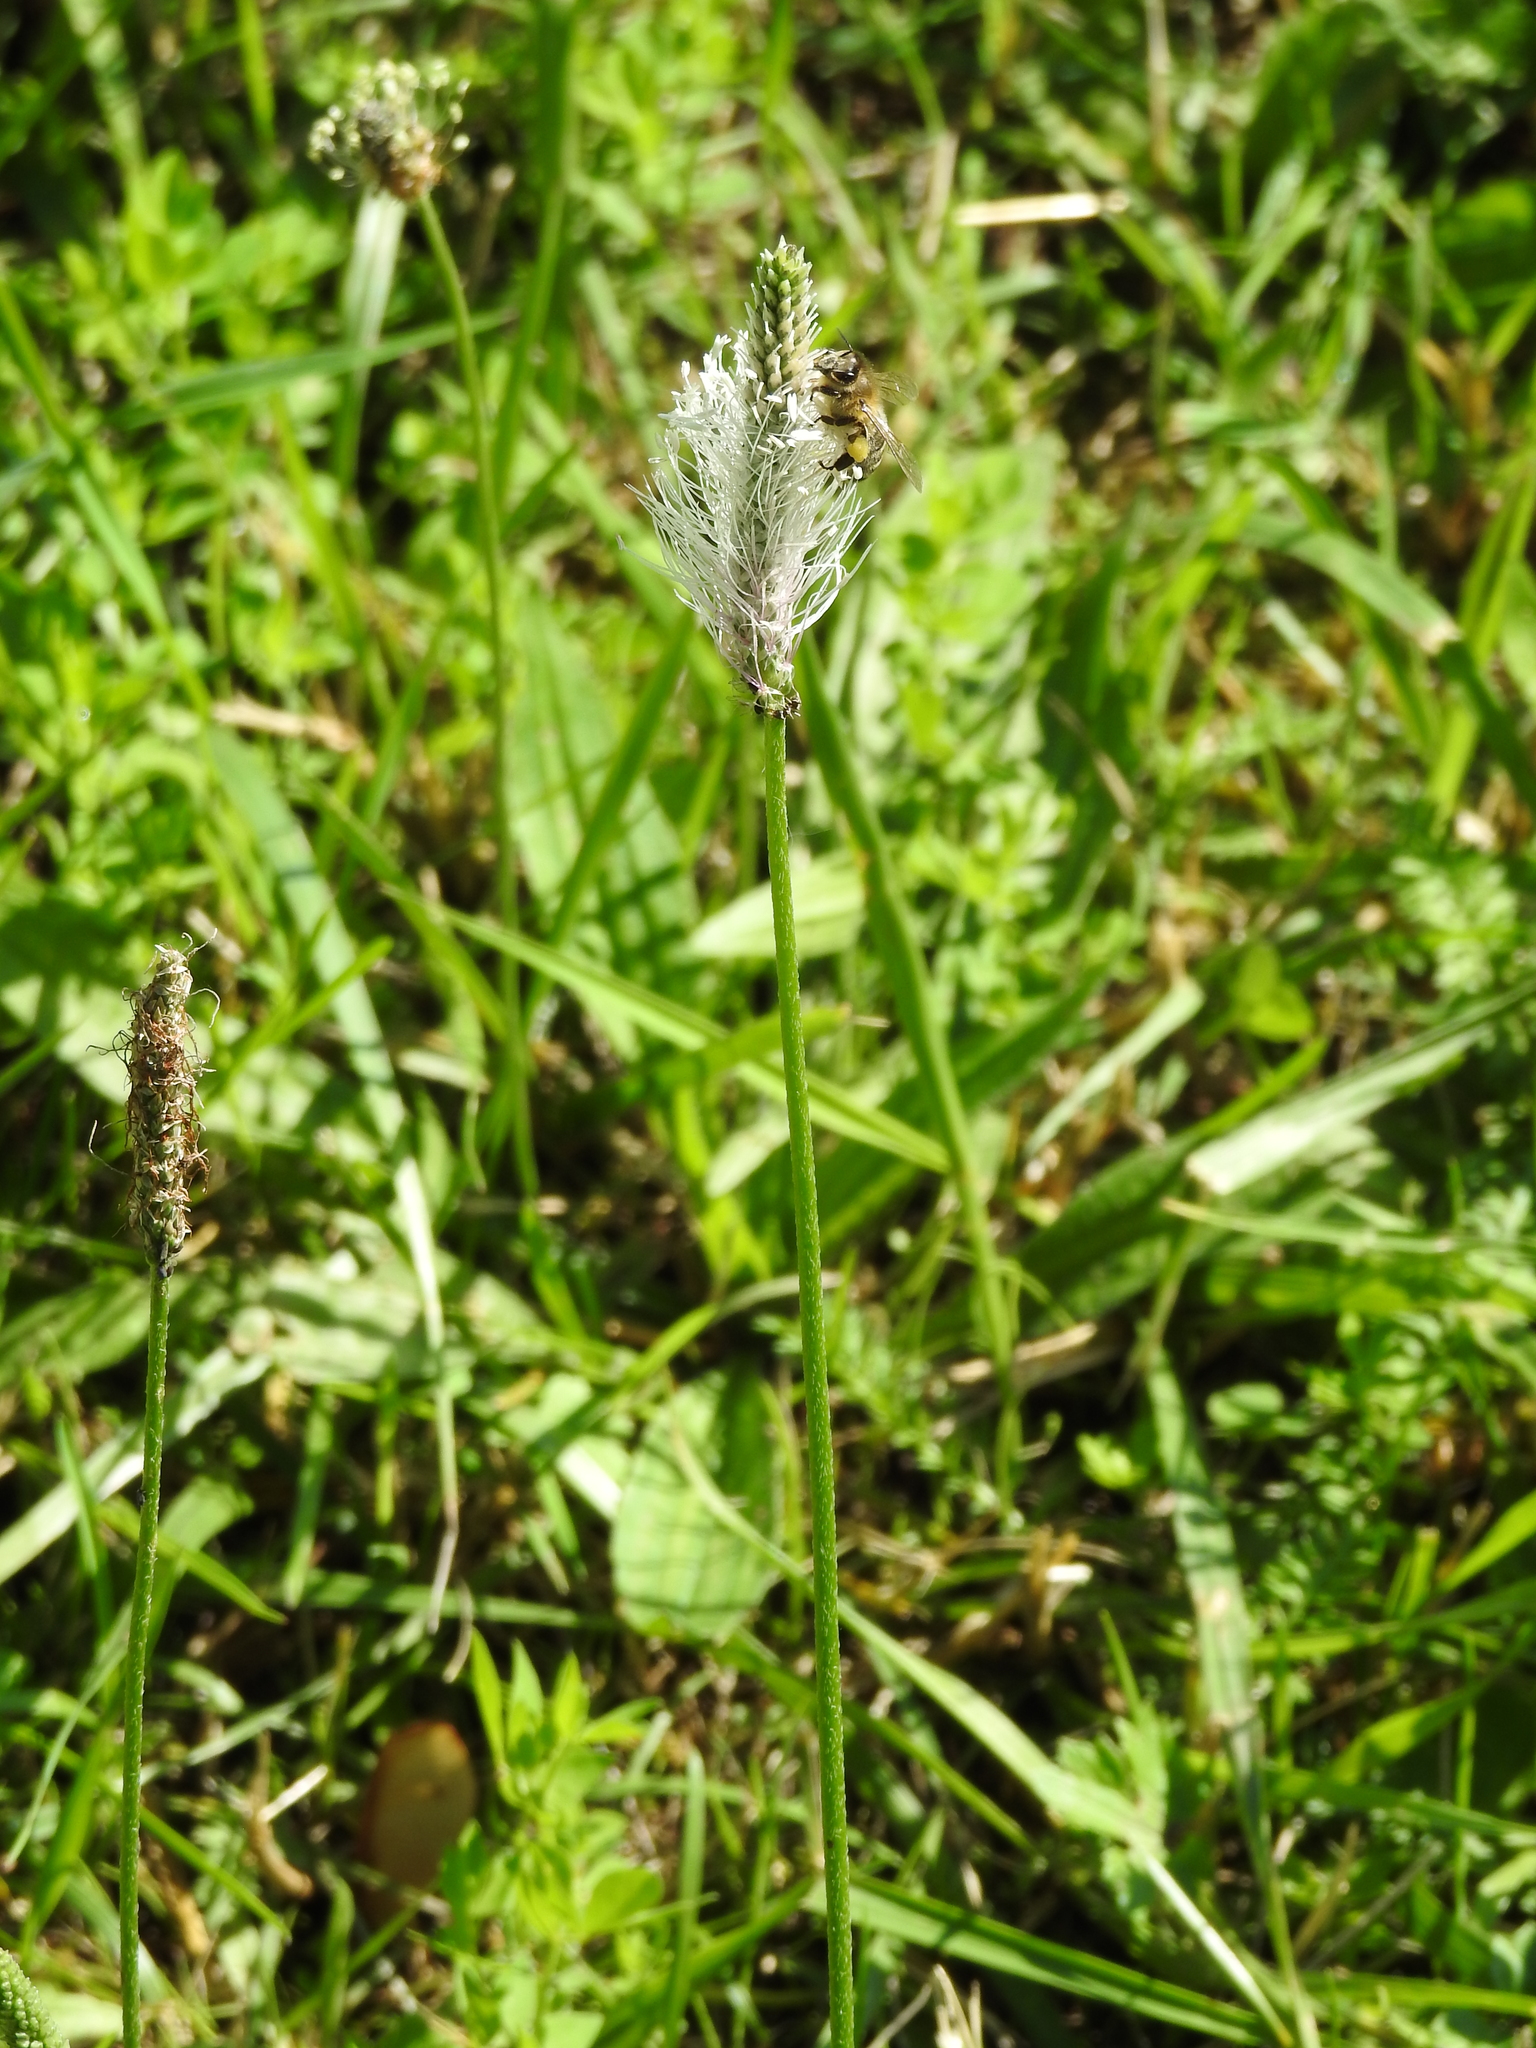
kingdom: Plantae
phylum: Tracheophyta
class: Magnoliopsida
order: Lamiales
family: Plantaginaceae
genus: Plantago
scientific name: Plantago media
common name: Hoary plantain
